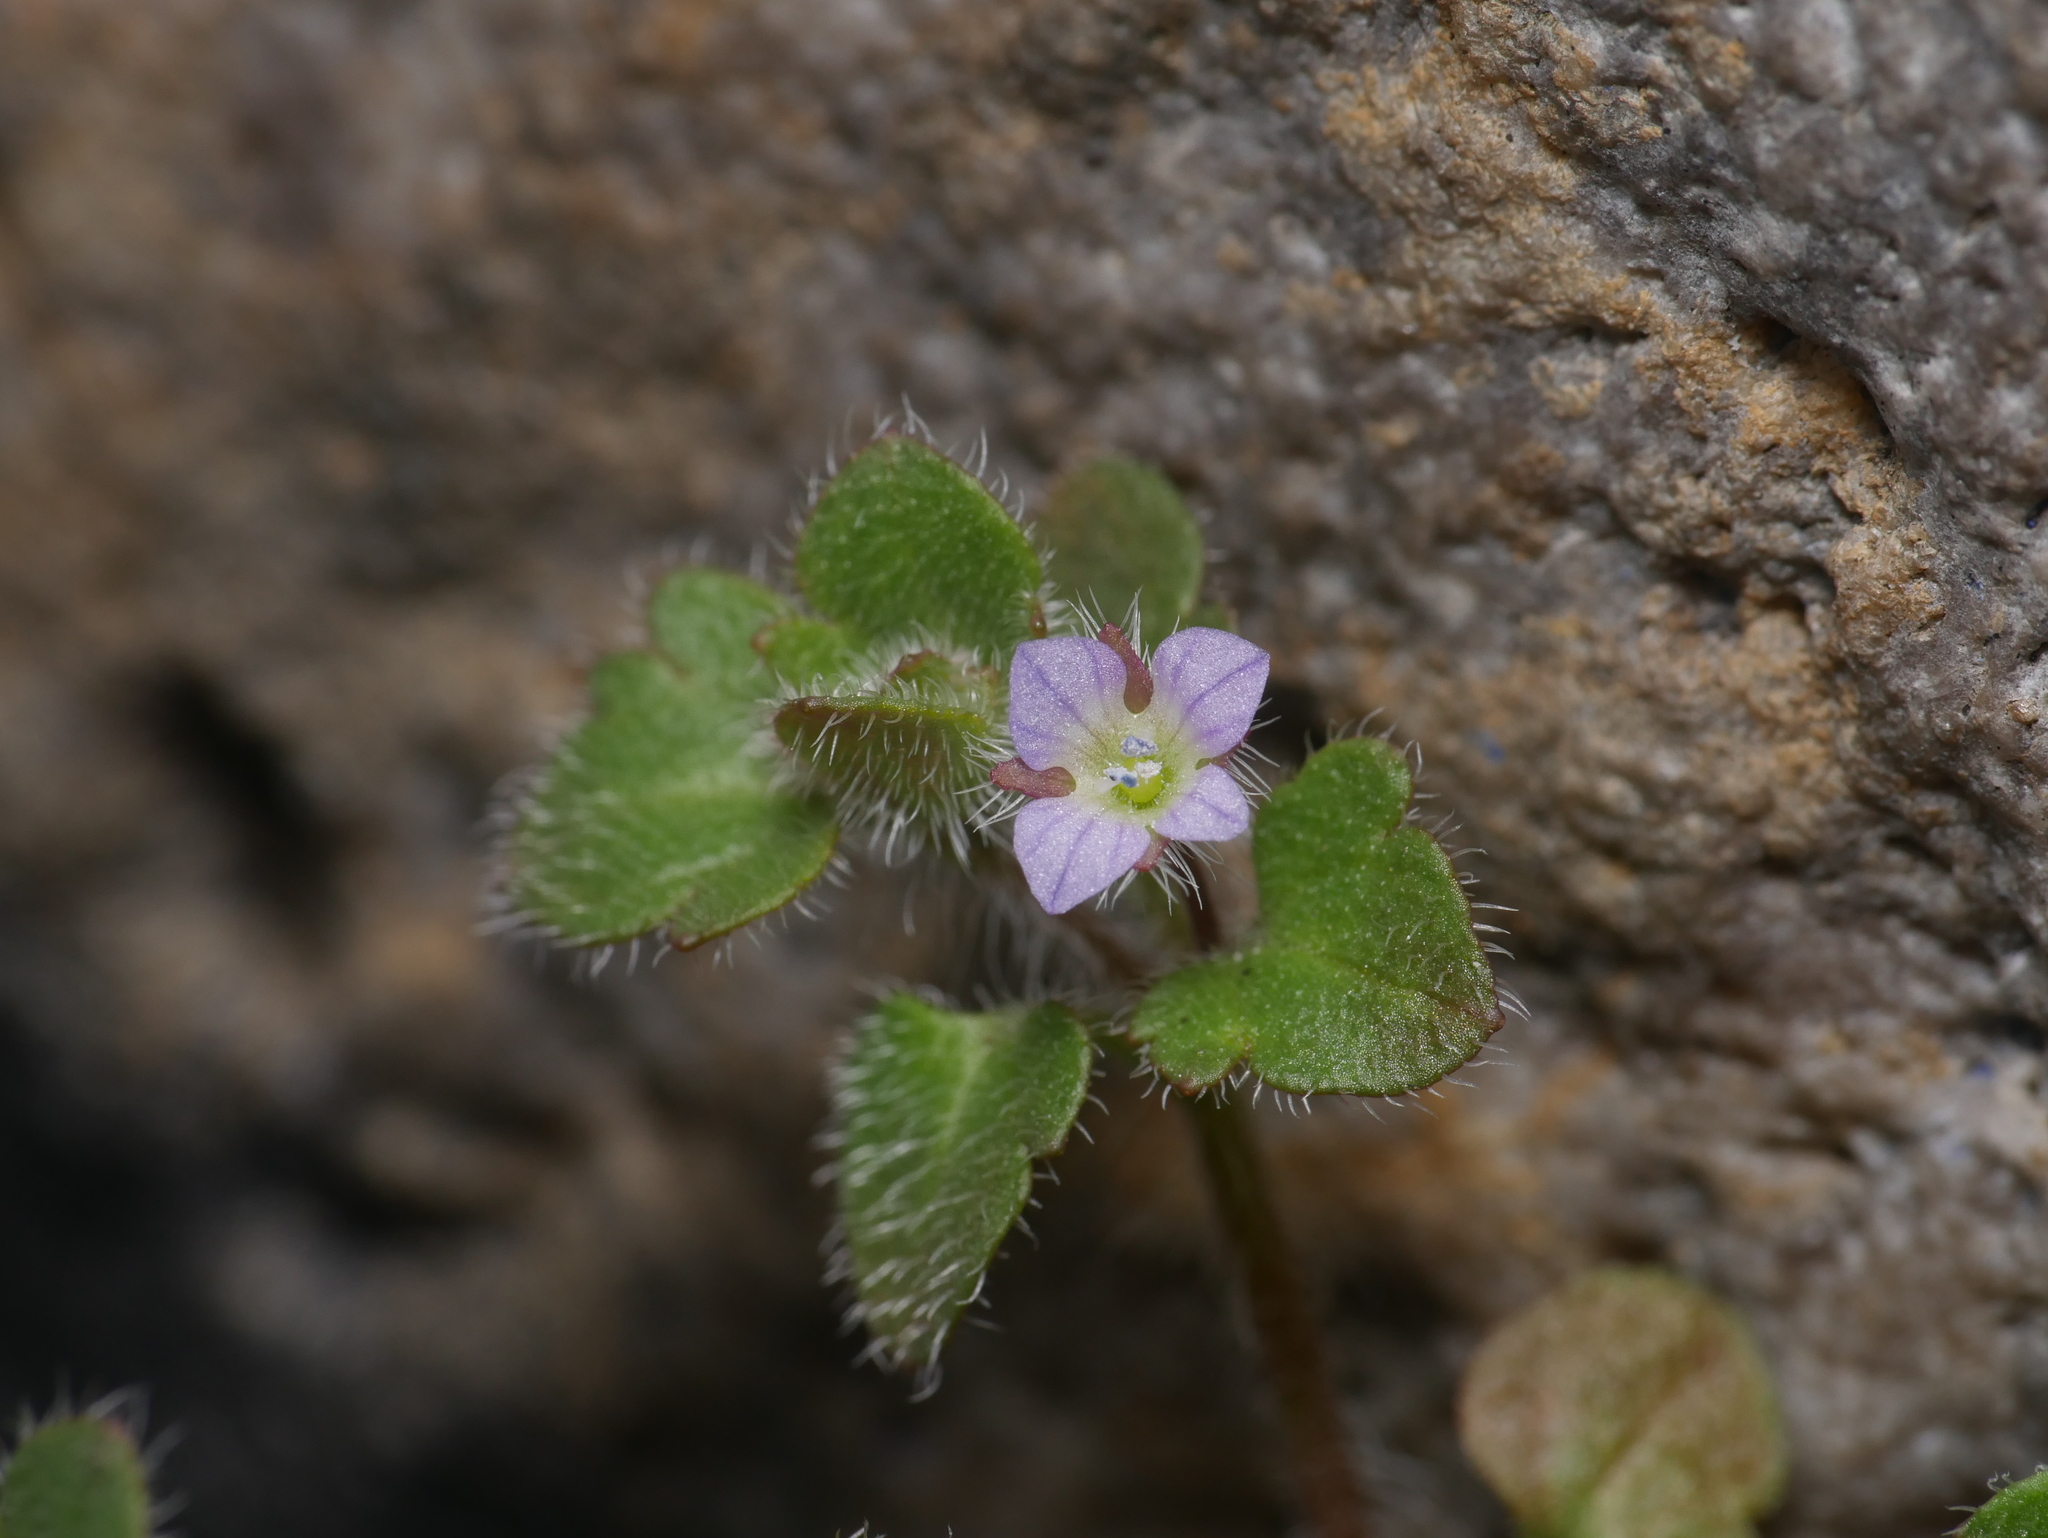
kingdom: Plantae
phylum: Tracheophyta
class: Magnoliopsida
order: Lamiales
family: Plantaginaceae
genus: Veronica
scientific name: Veronica hederifolia
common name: Ivy-leaved speedwell
